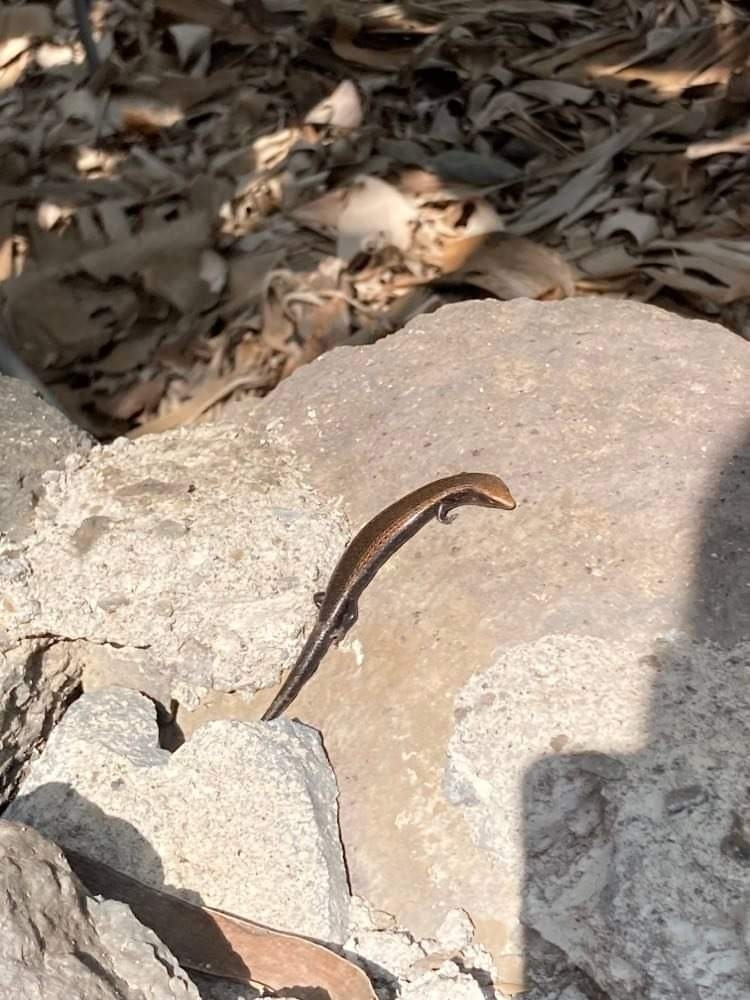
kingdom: Animalia
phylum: Chordata
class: Squamata
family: Scincidae
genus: Chalcides
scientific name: Chalcides coeruleopunctatus
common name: La gomera skink
